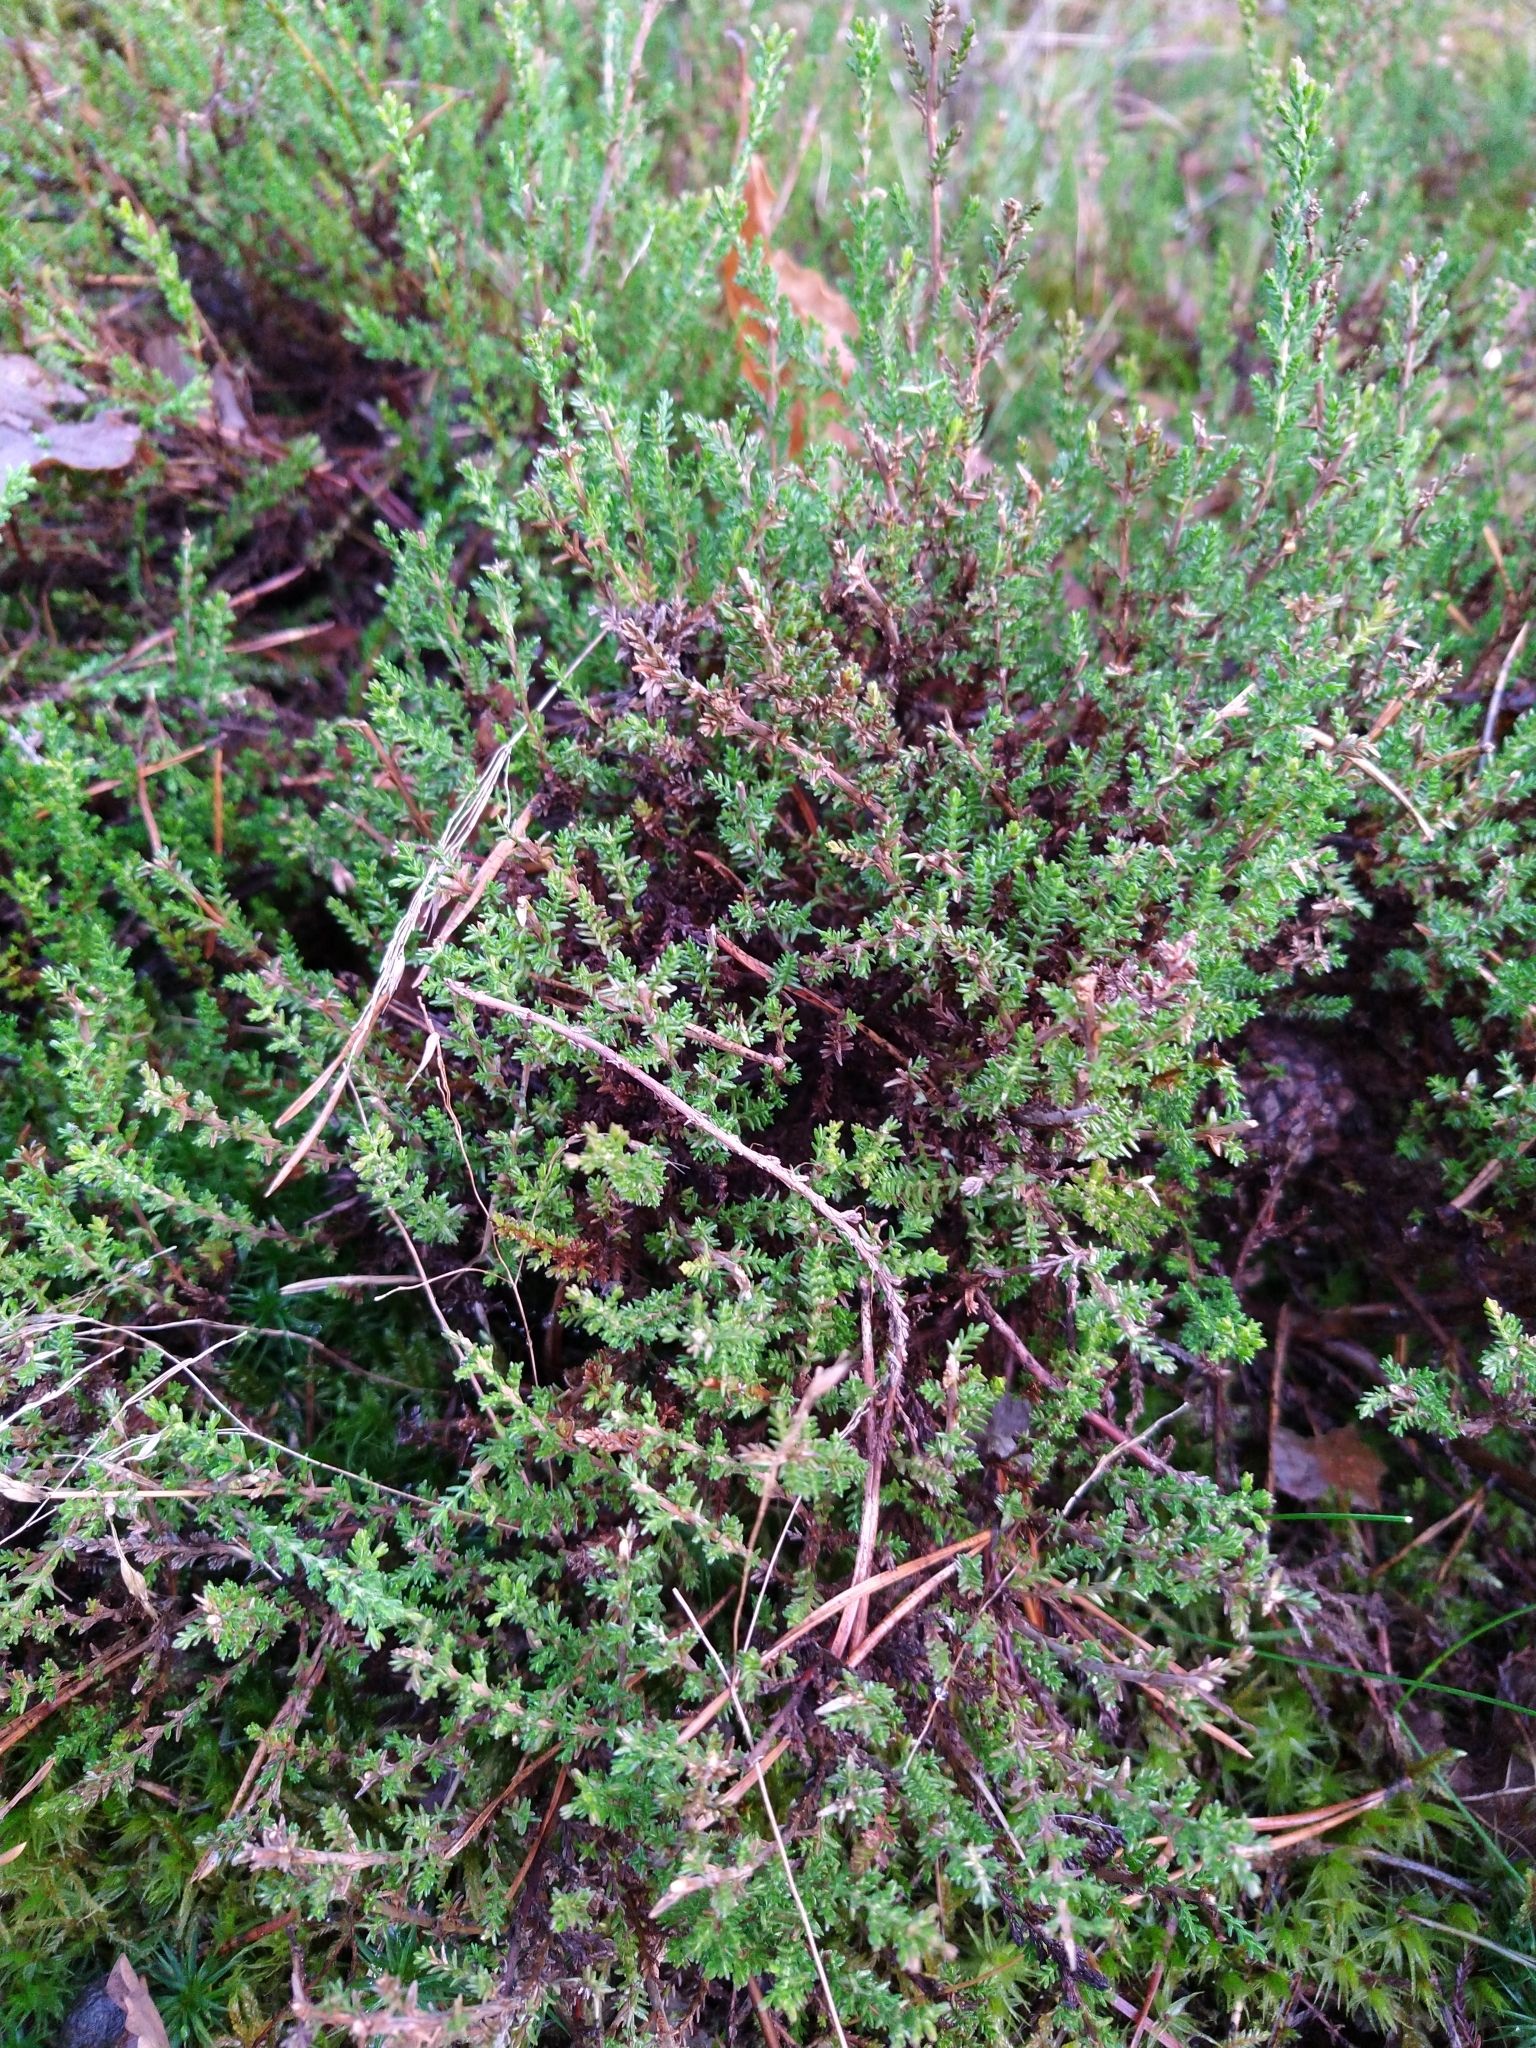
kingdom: Plantae
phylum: Tracheophyta
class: Magnoliopsida
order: Ericales
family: Ericaceae
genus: Calluna
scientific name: Calluna vulgaris
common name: Heather
